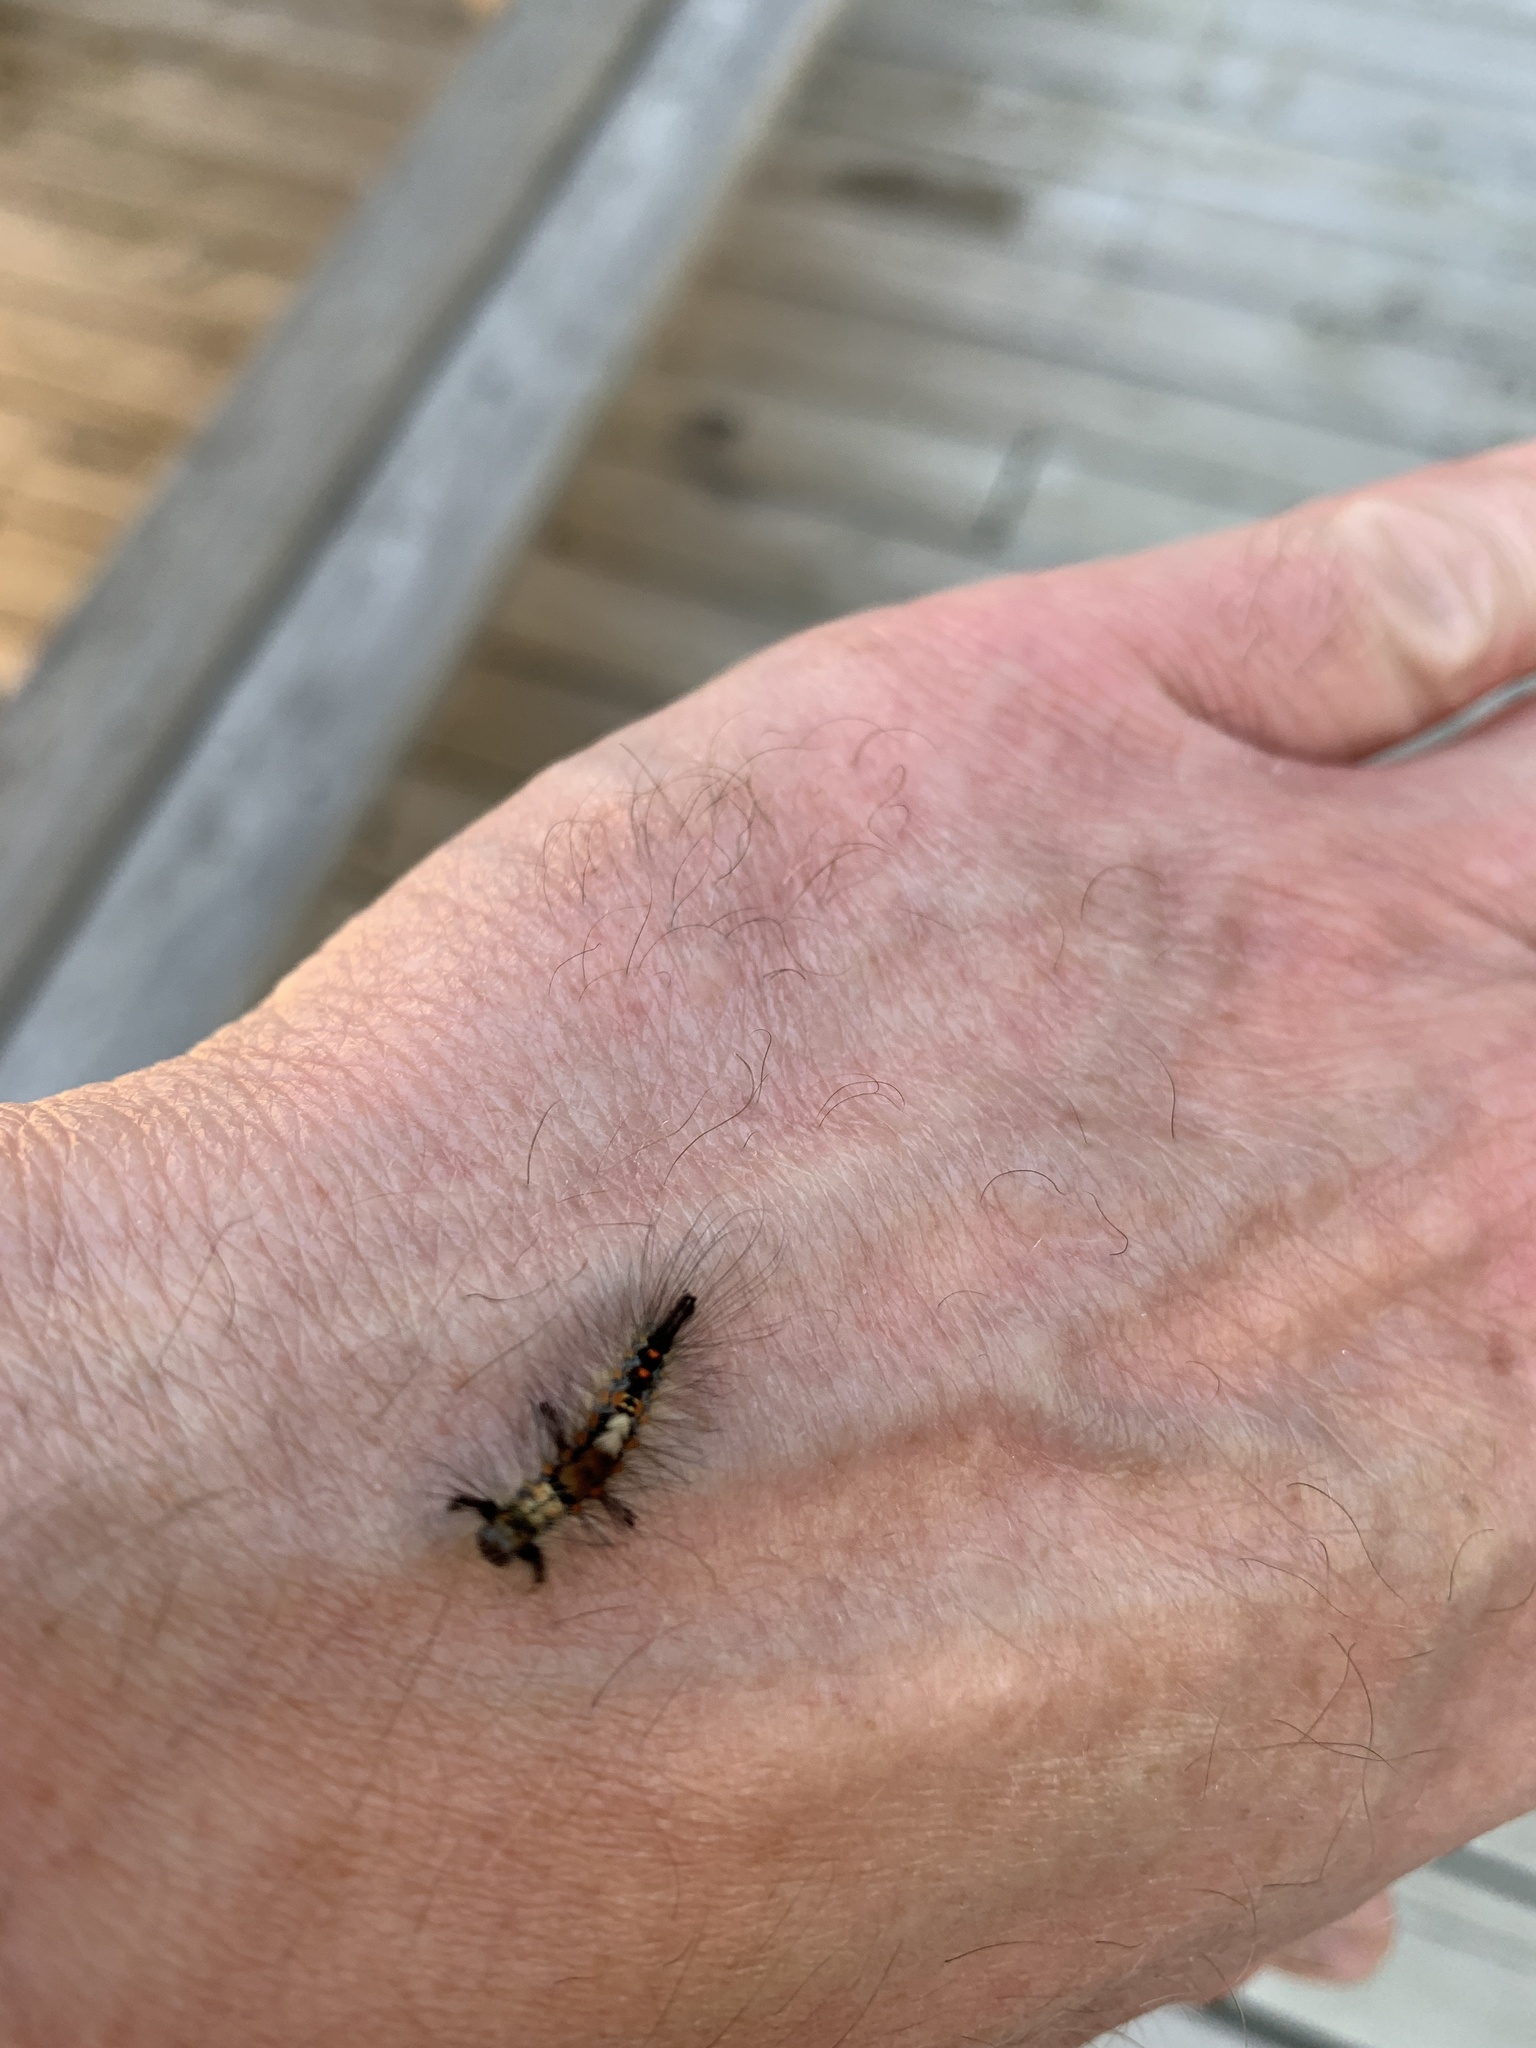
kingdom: Animalia
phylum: Arthropoda
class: Insecta
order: Lepidoptera
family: Erebidae
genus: Orgyia
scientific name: Orgyia antiqua
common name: Vapourer
